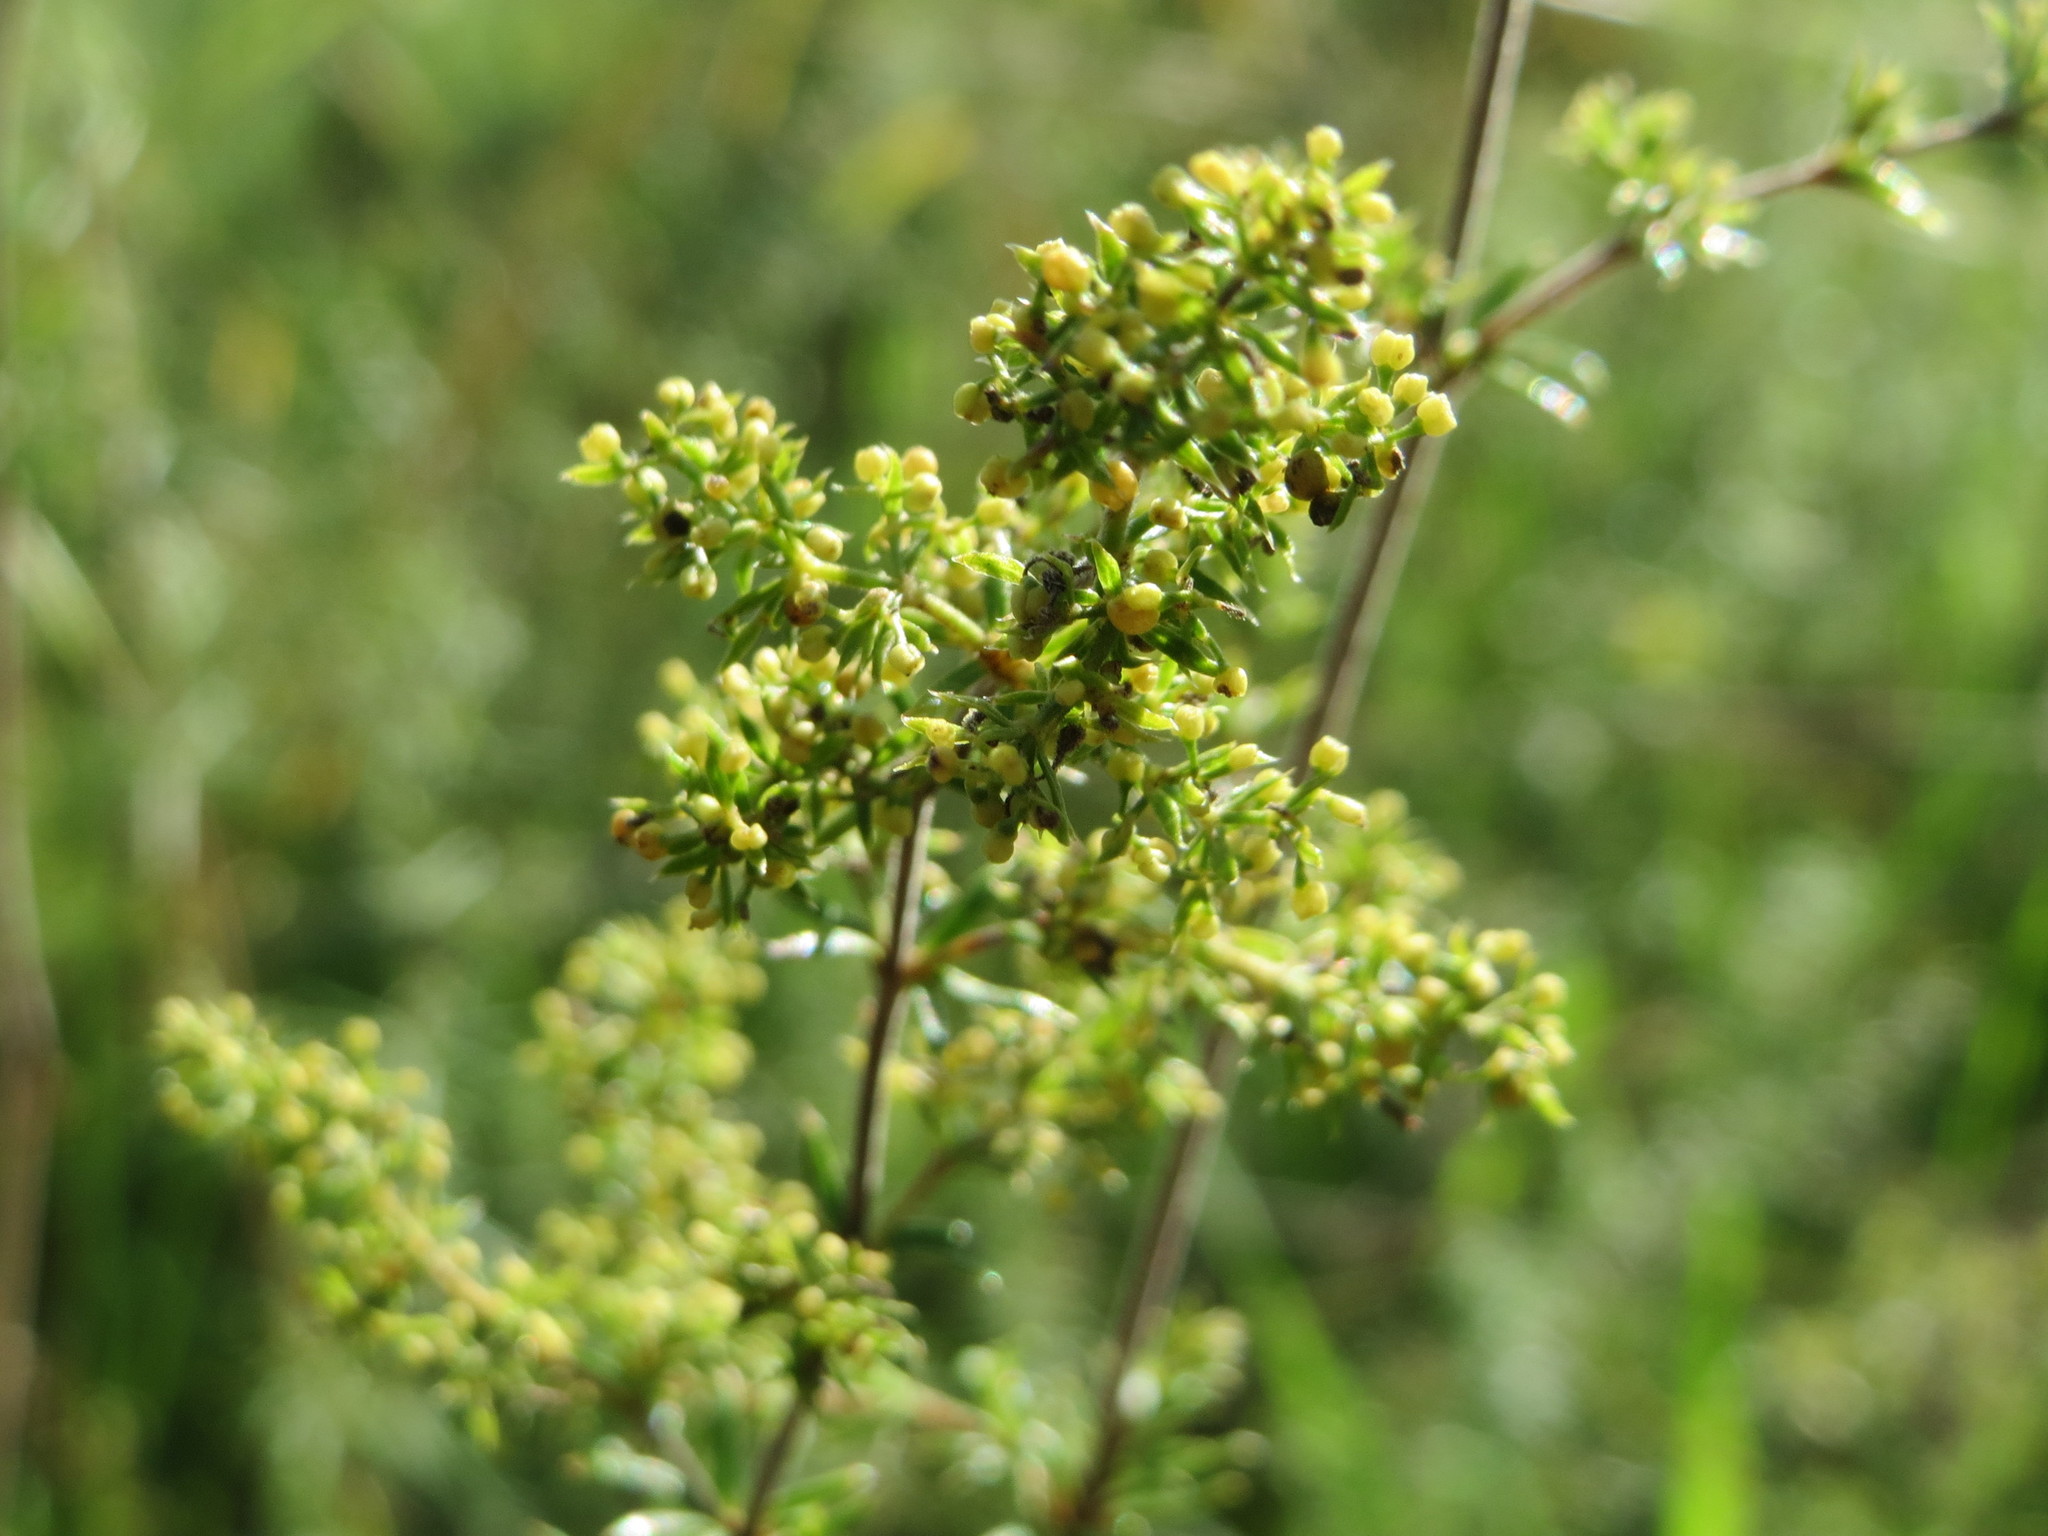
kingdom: Plantae
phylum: Tracheophyta
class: Magnoliopsida
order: Gentianales
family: Rubiaceae
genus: Galium
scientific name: Galium verum
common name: Lady's bedstraw
